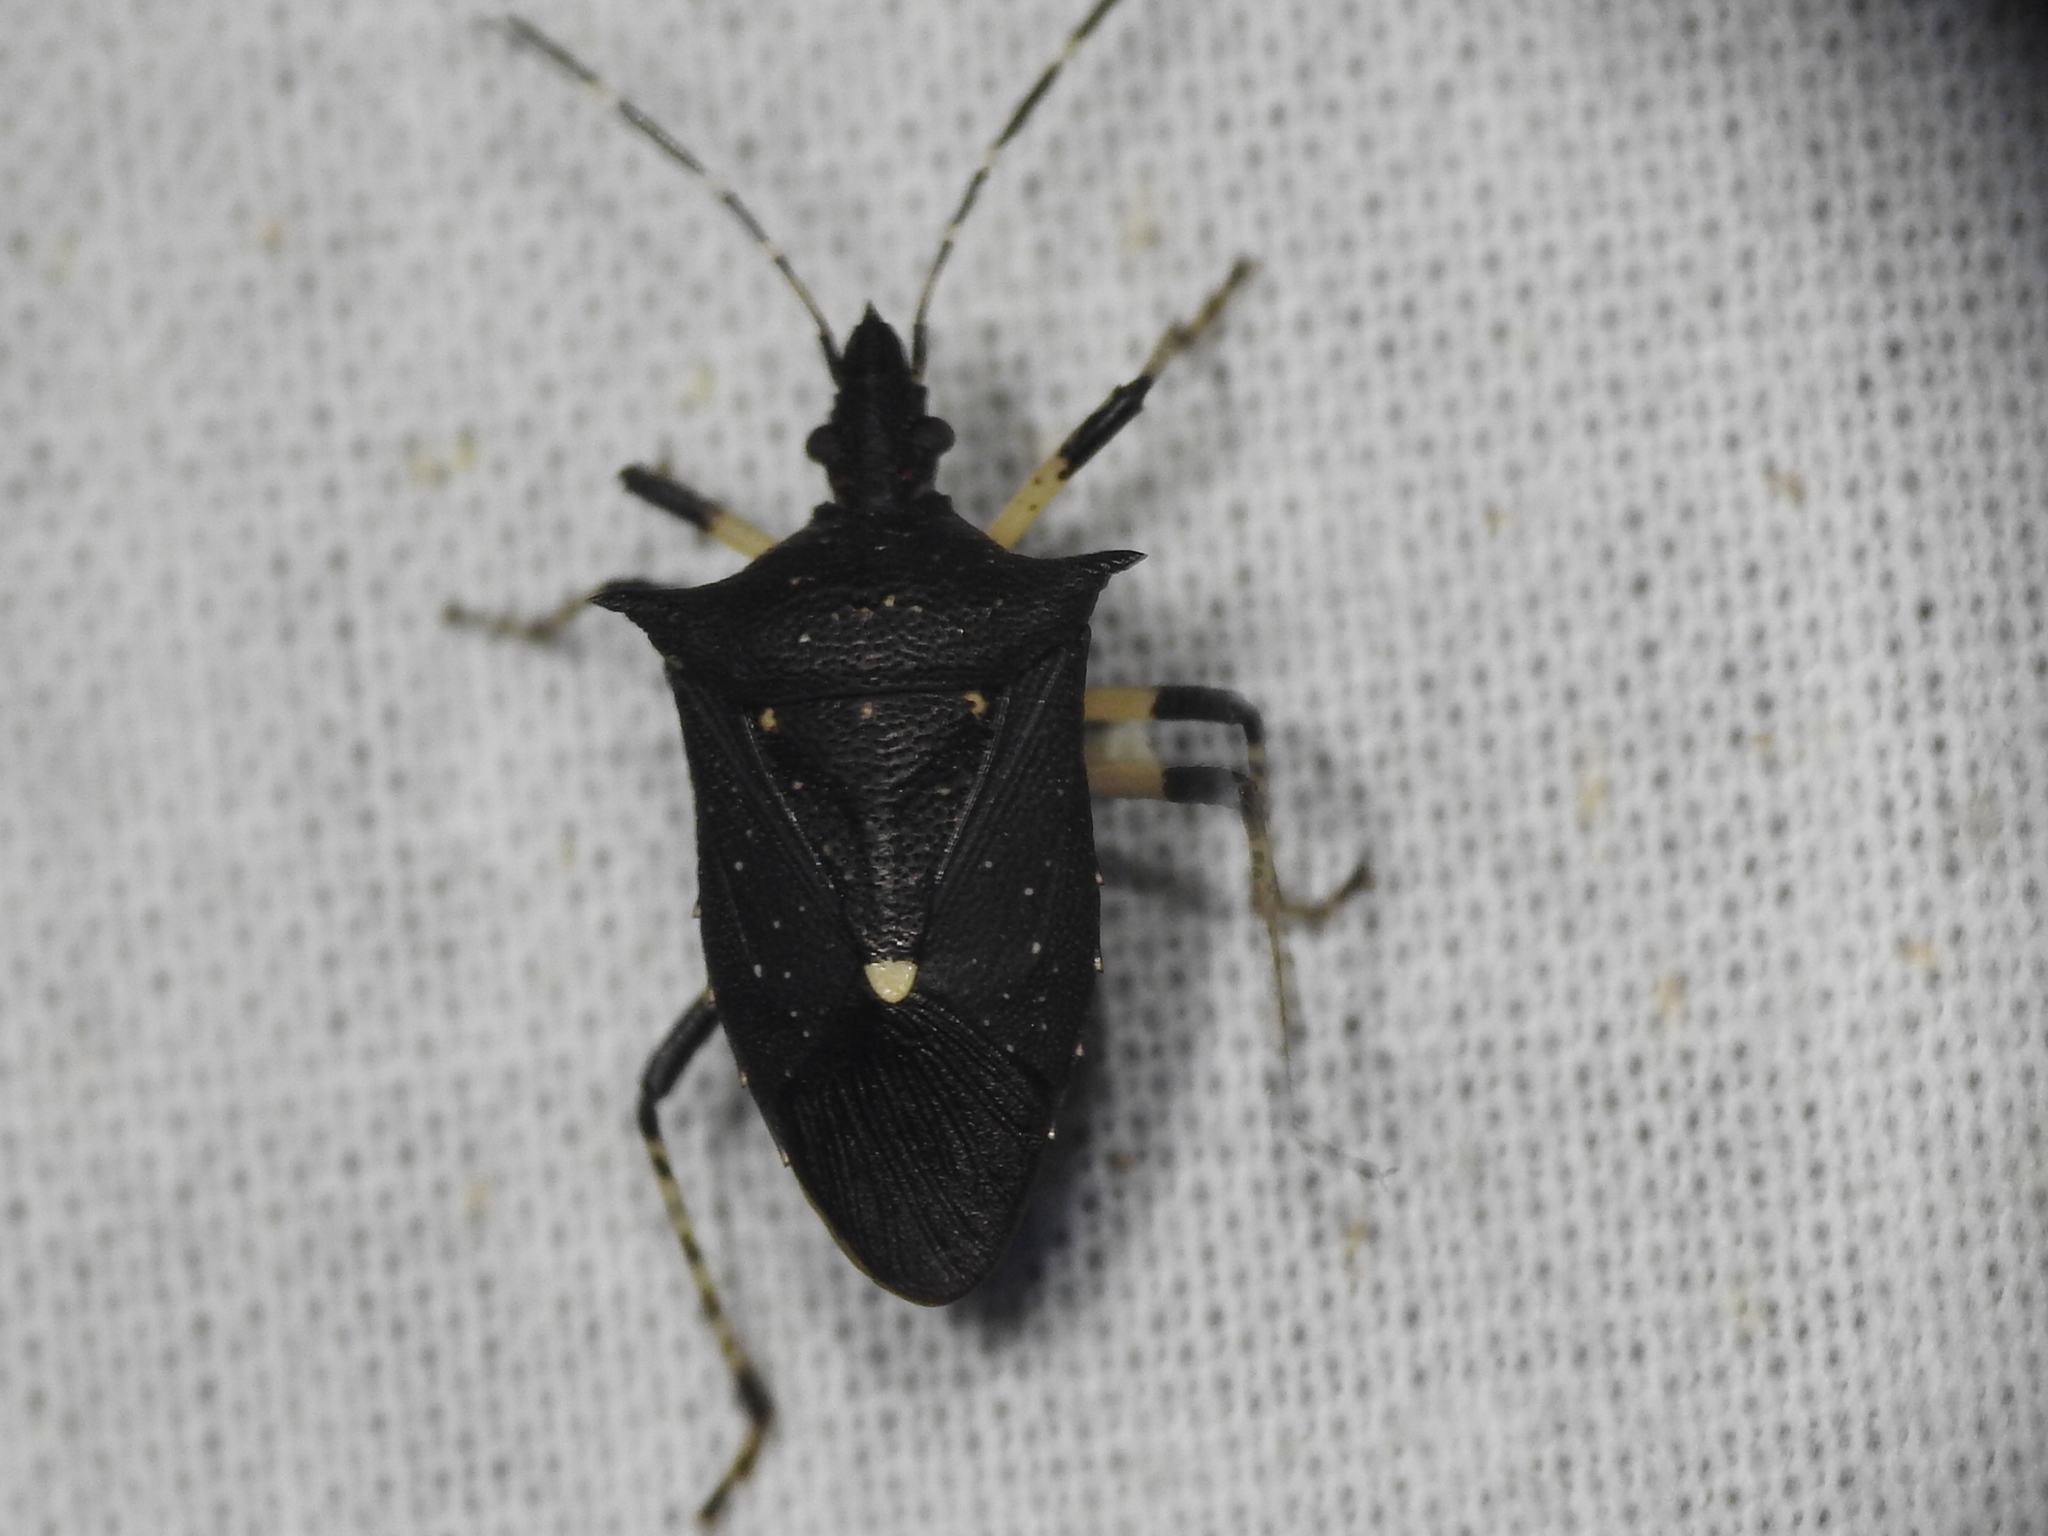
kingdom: Animalia
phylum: Arthropoda
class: Insecta
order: Hemiptera
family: Pentatomidae
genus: Proxys
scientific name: Proxys punctulatus
